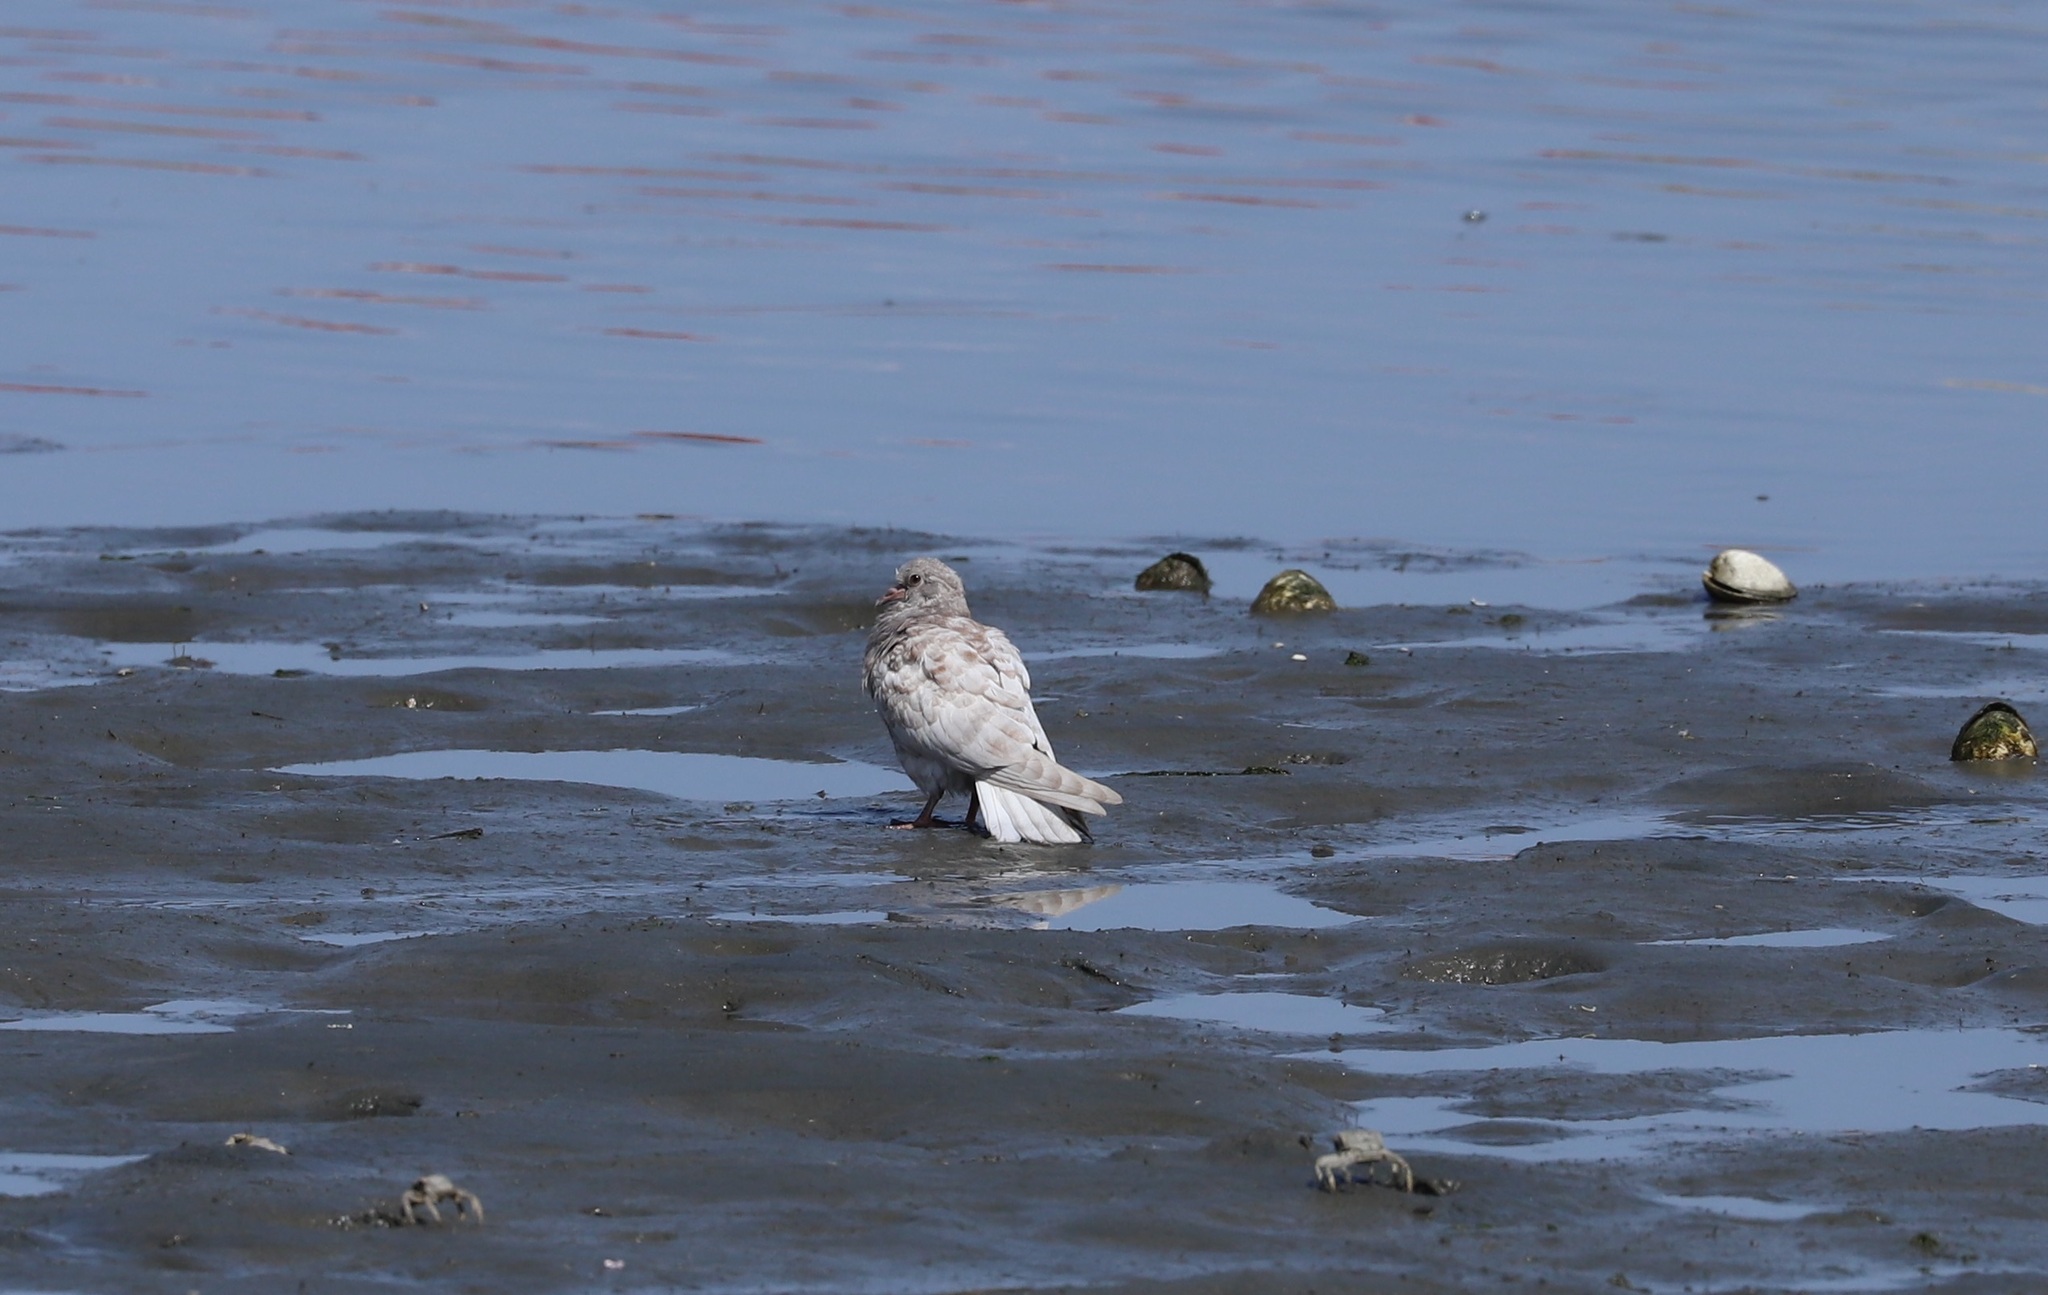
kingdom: Animalia
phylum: Chordata
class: Aves
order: Columbiformes
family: Columbidae
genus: Columba
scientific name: Columba livia
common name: Rock pigeon
